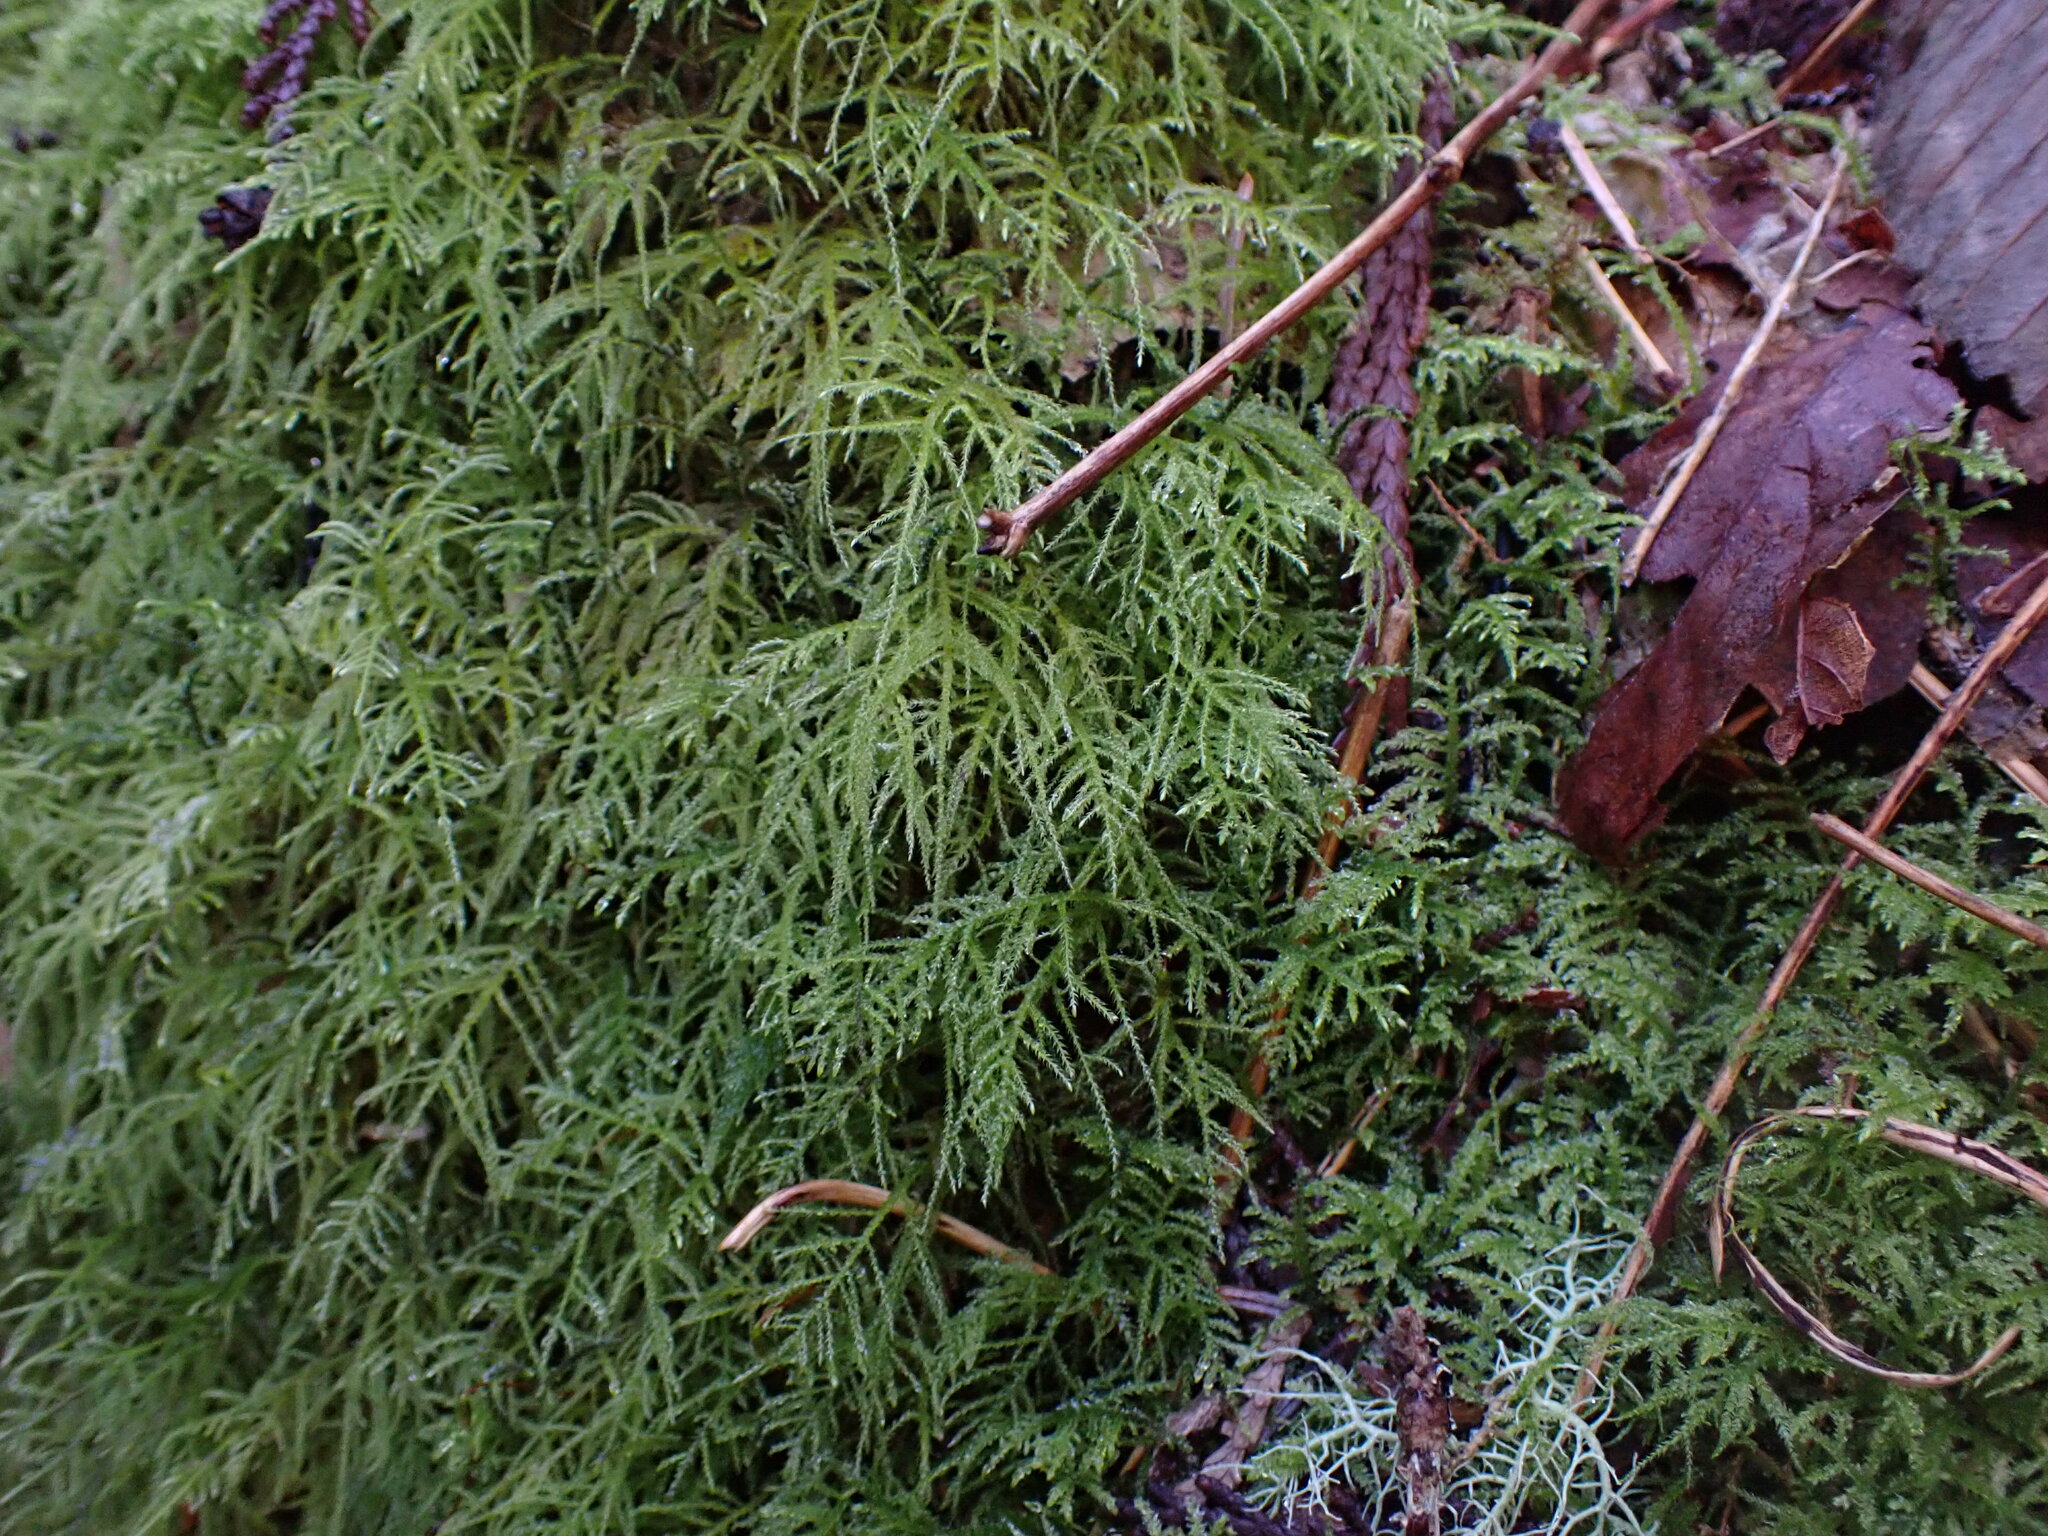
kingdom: Plantae
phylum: Bryophyta
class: Bryopsida
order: Hypnales
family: Brachytheciaceae
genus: Kindbergia
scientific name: Kindbergia praelonga
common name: Slender beaked moss
